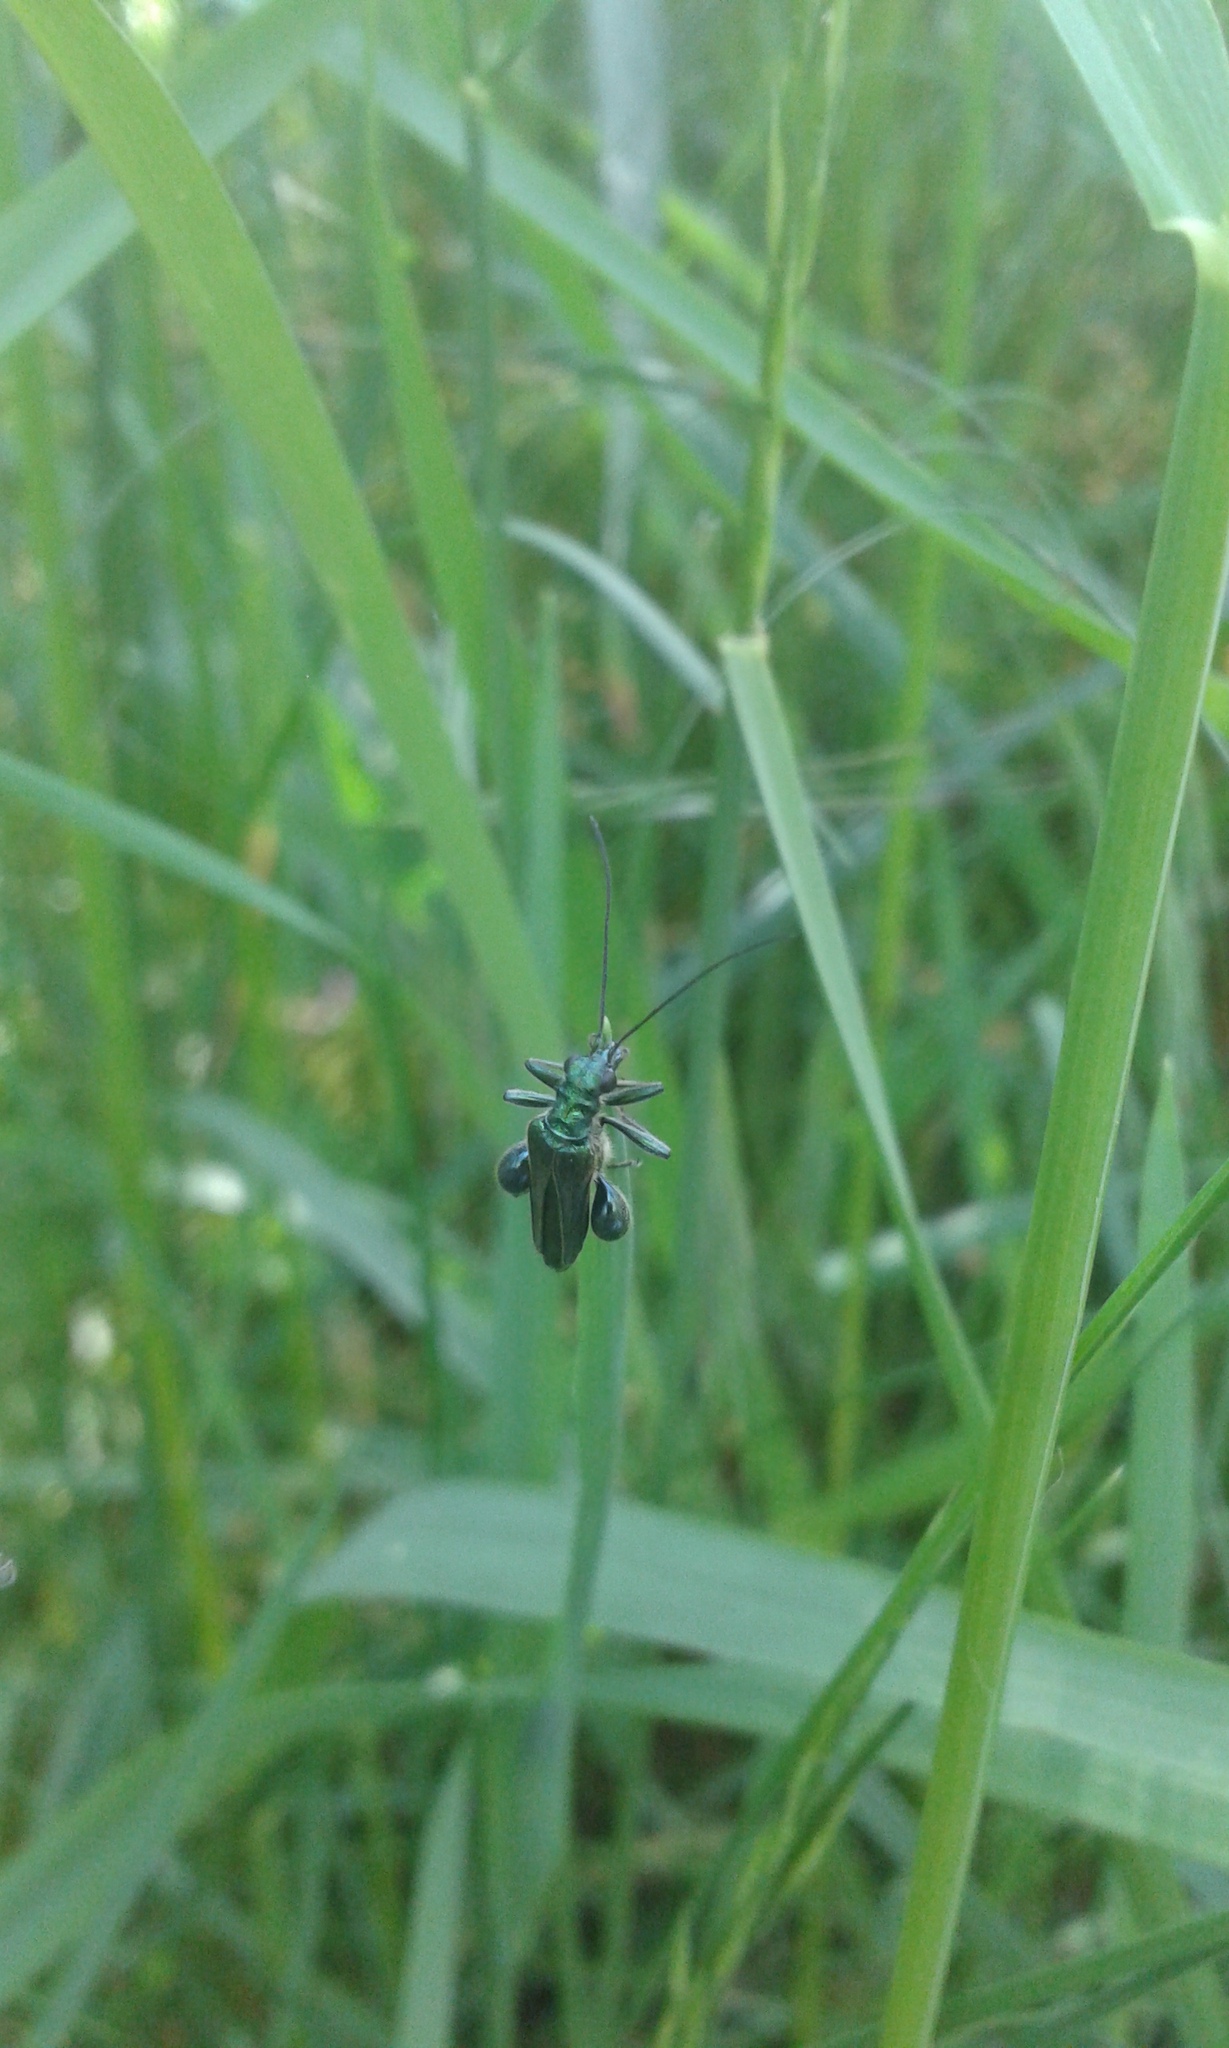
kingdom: Animalia
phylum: Arthropoda
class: Insecta
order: Coleoptera
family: Oedemeridae
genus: Oedemera
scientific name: Oedemera nobilis
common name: Swollen-thighed beetle
